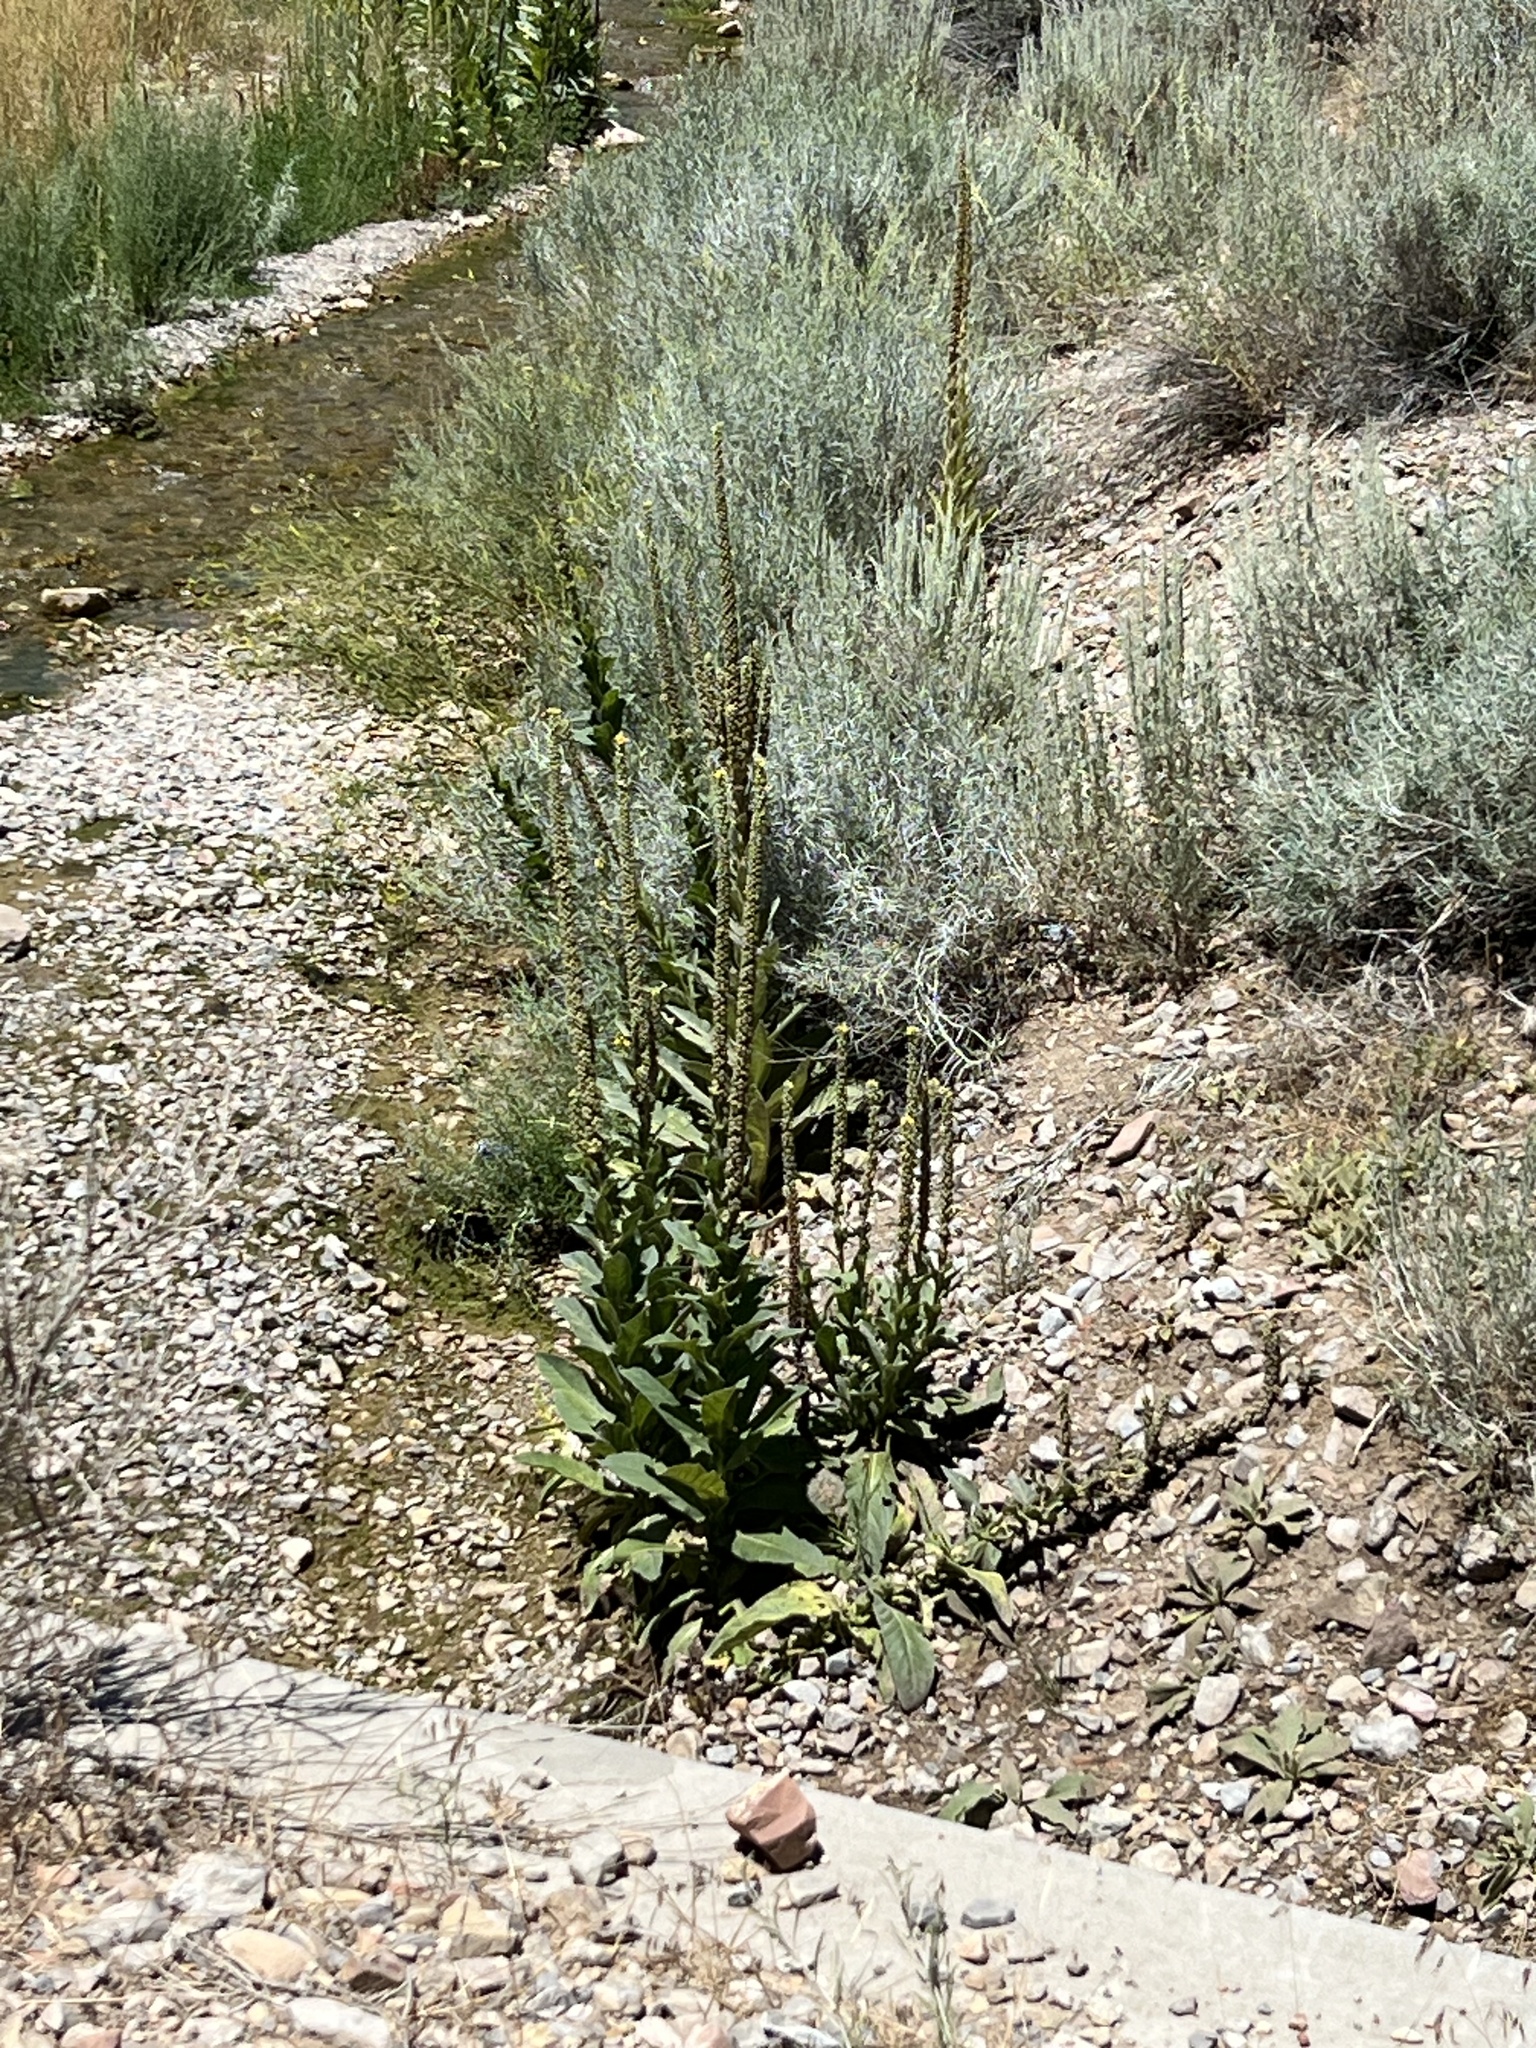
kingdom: Plantae
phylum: Tracheophyta
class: Magnoliopsida
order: Lamiales
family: Scrophulariaceae
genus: Verbascum
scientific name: Verbascum thapsus
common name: Common mullein
